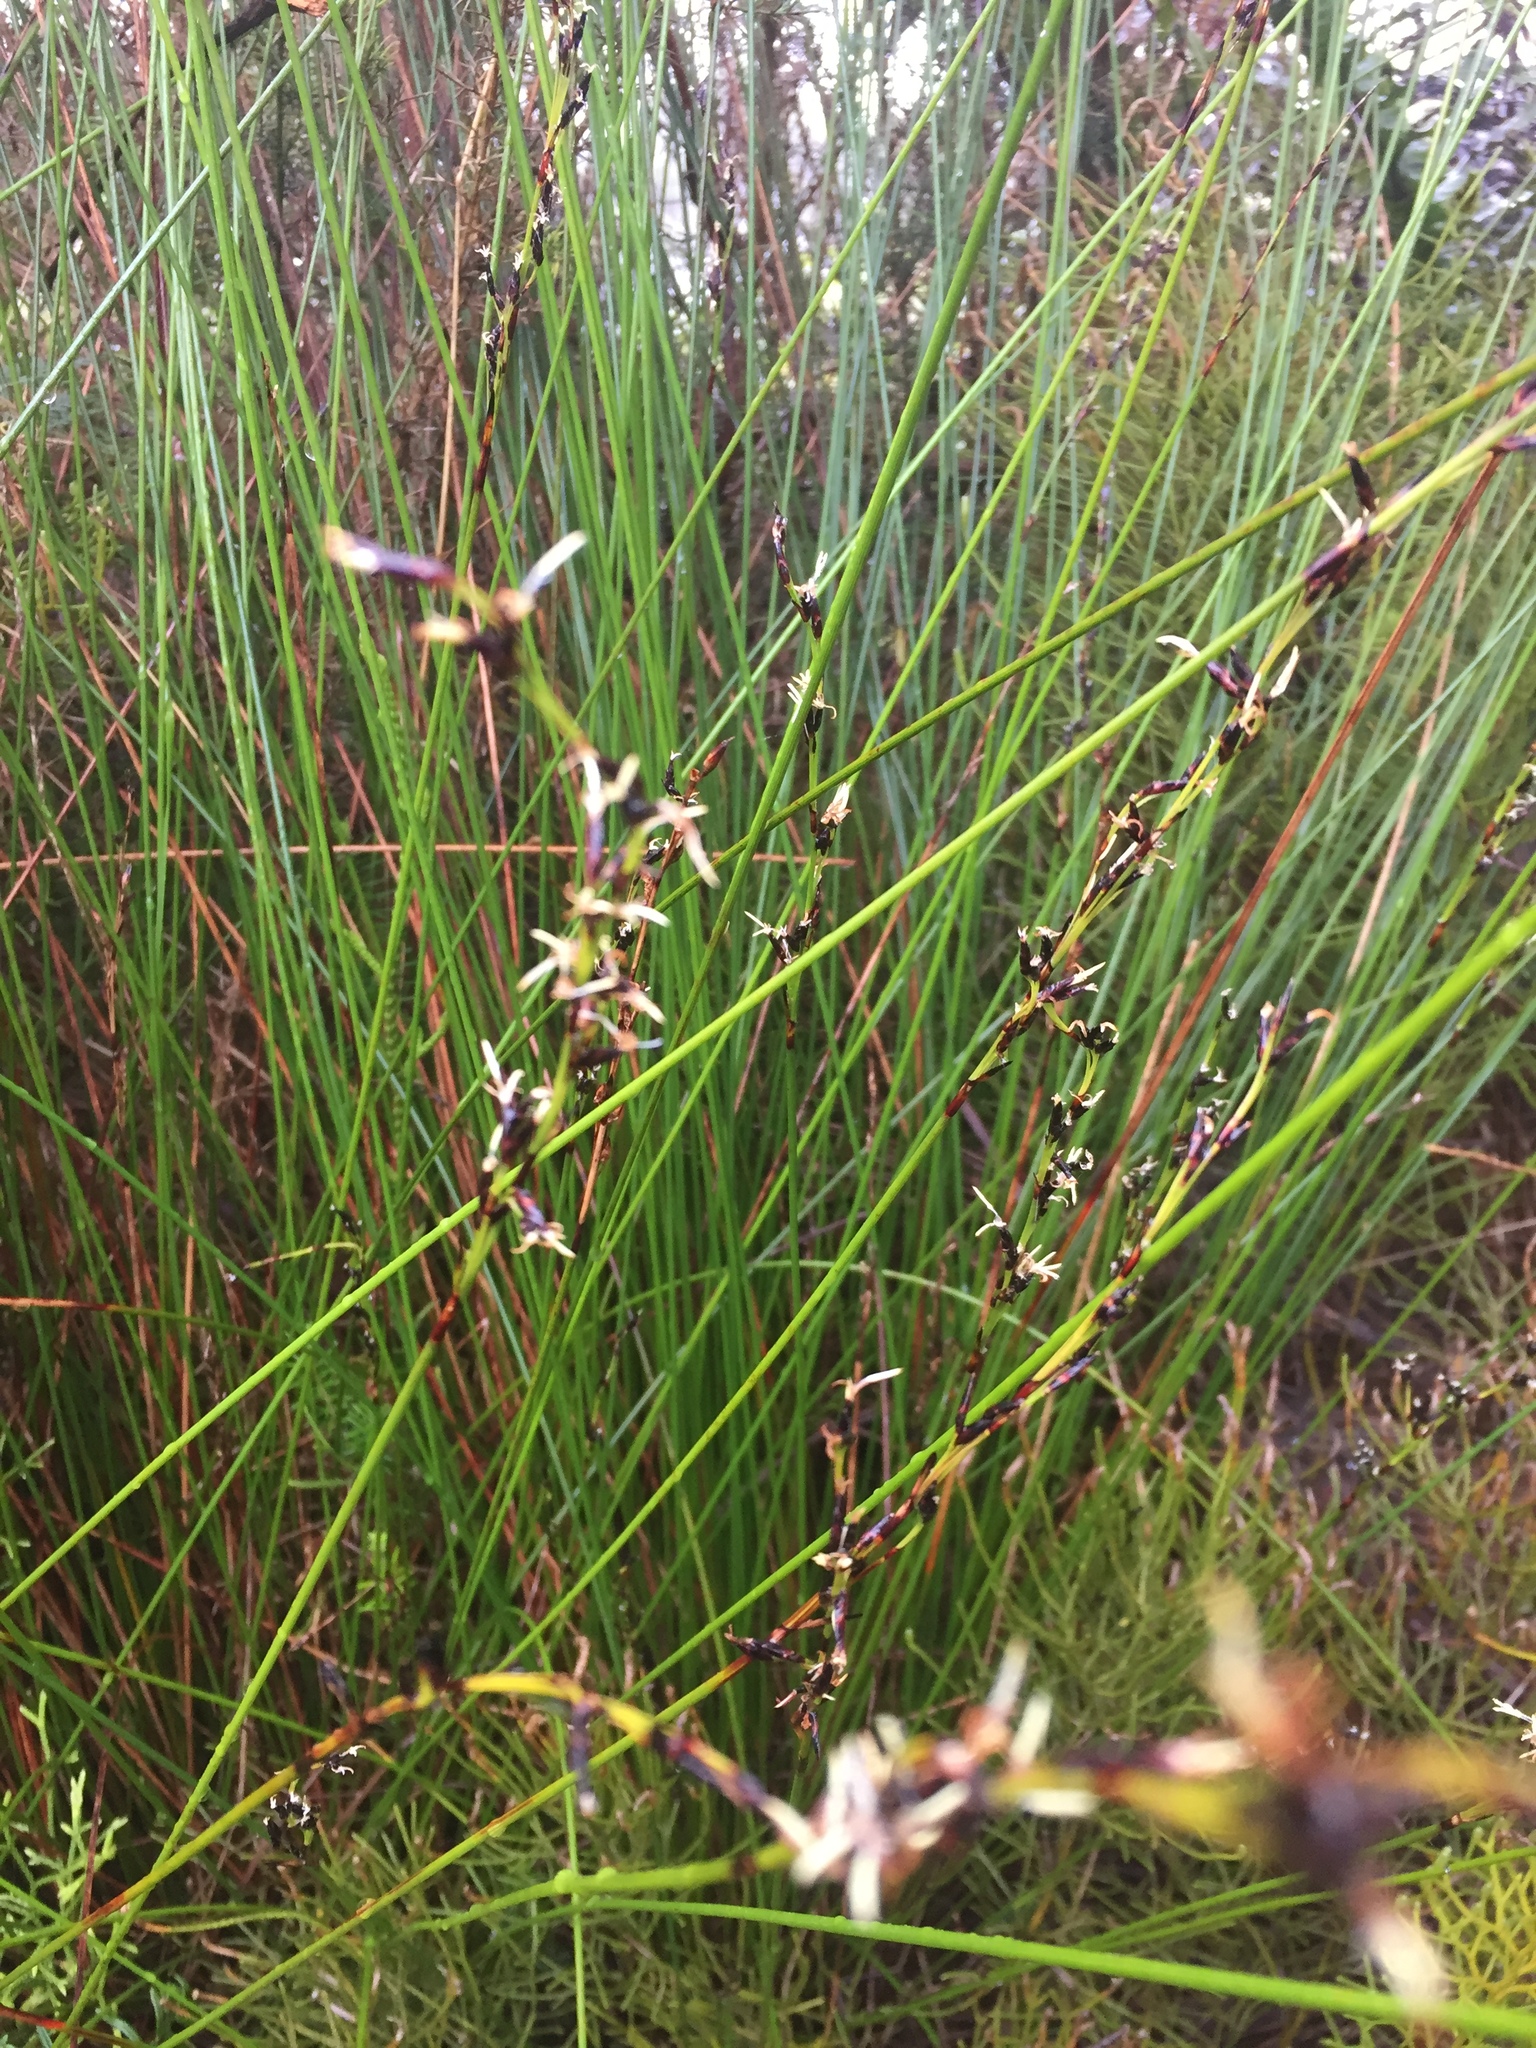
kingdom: Plantae
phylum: Tracheophyta
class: Liliopsida
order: Poales
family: Cyperaceae
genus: Schoenus
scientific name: Schoenus tendo
